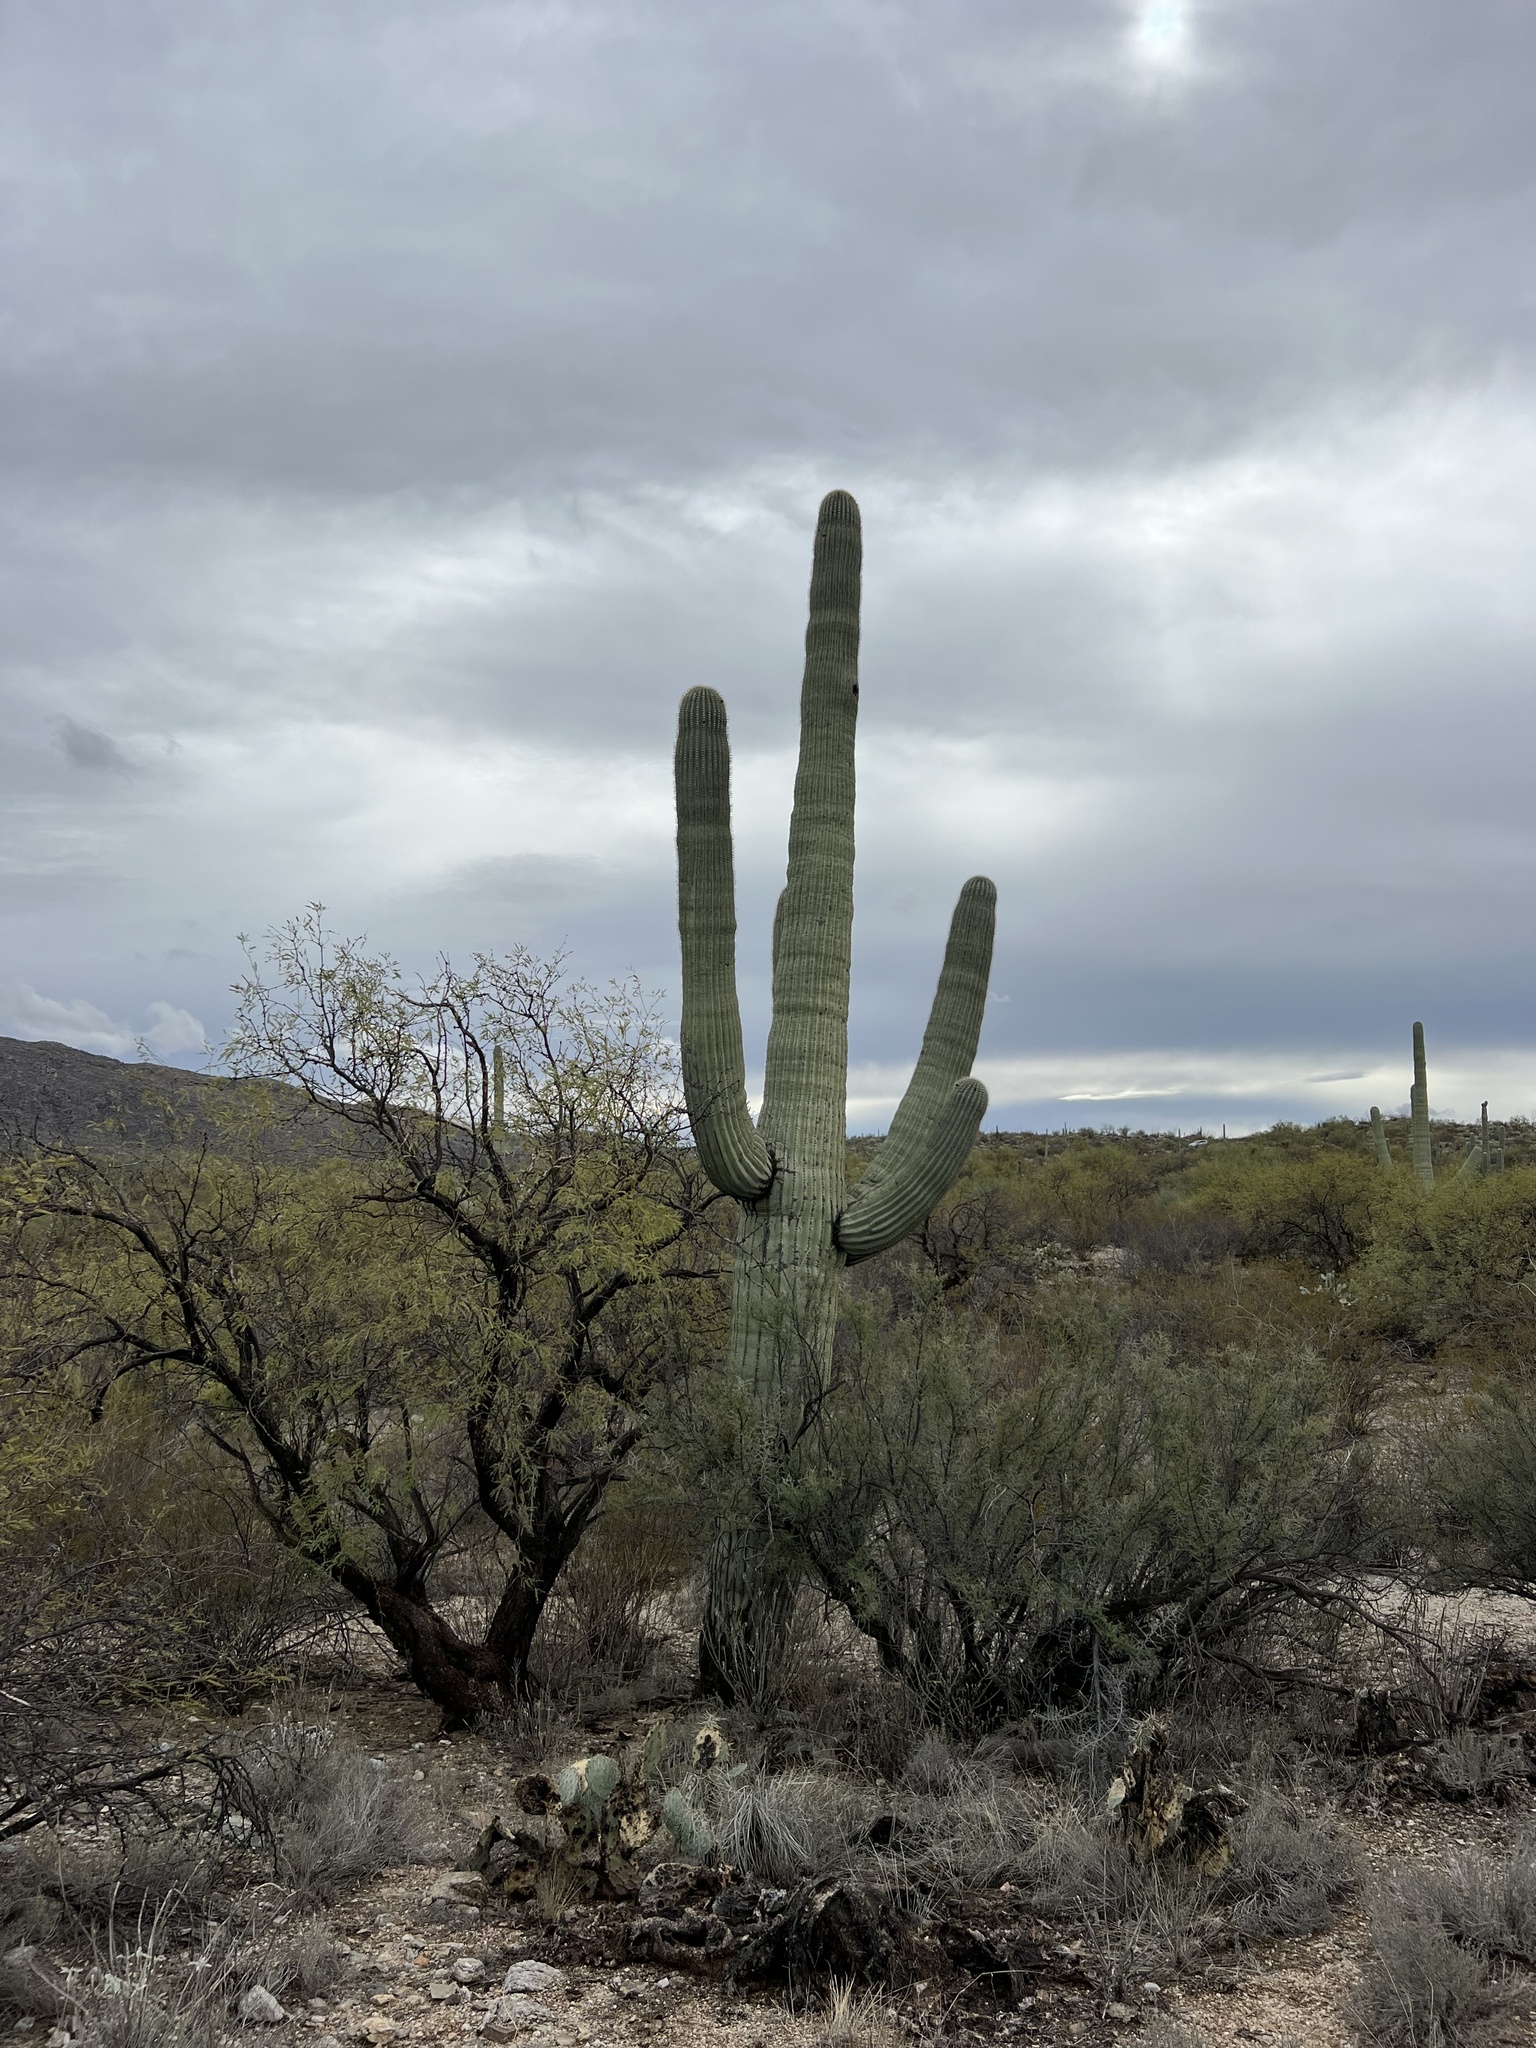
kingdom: Plantae
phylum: Tracheophyta
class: Magnoliopsida
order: Caryophyllales
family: Cactaceae
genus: Carnegiea
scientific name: Carnegiea gigantea
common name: Saguaro
